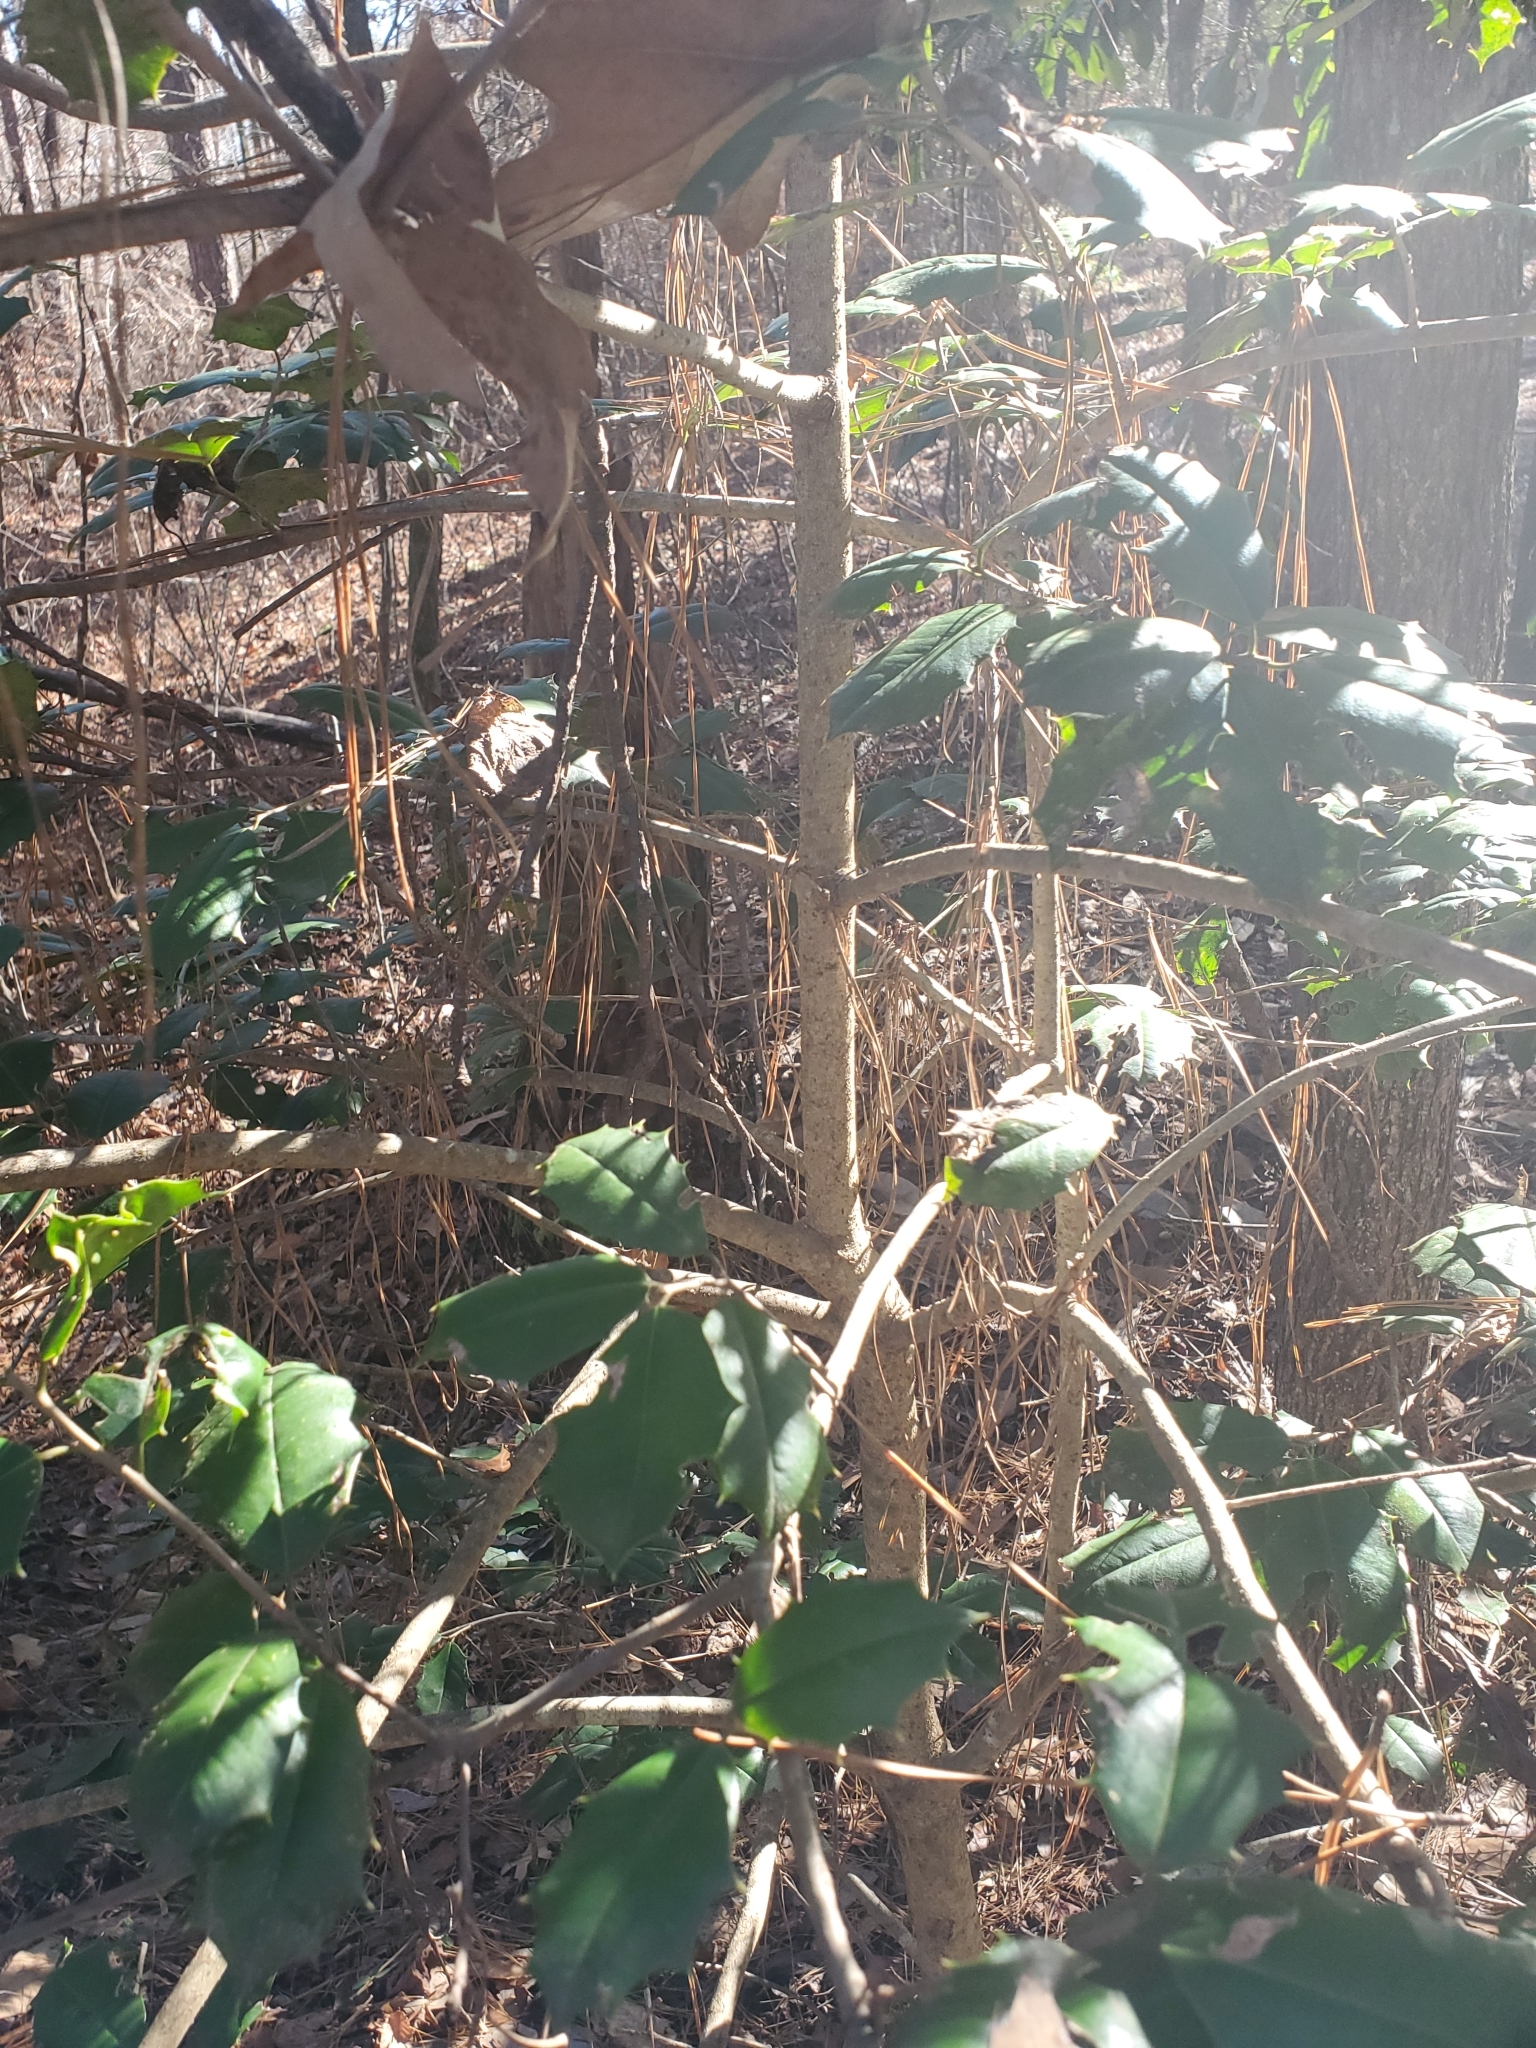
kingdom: Plantae
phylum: Tracheophyta
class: Magnoliopsida
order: Aquifoliales
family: Aquifoliaceae
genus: Ilex
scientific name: Ilex opaca
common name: American holly
